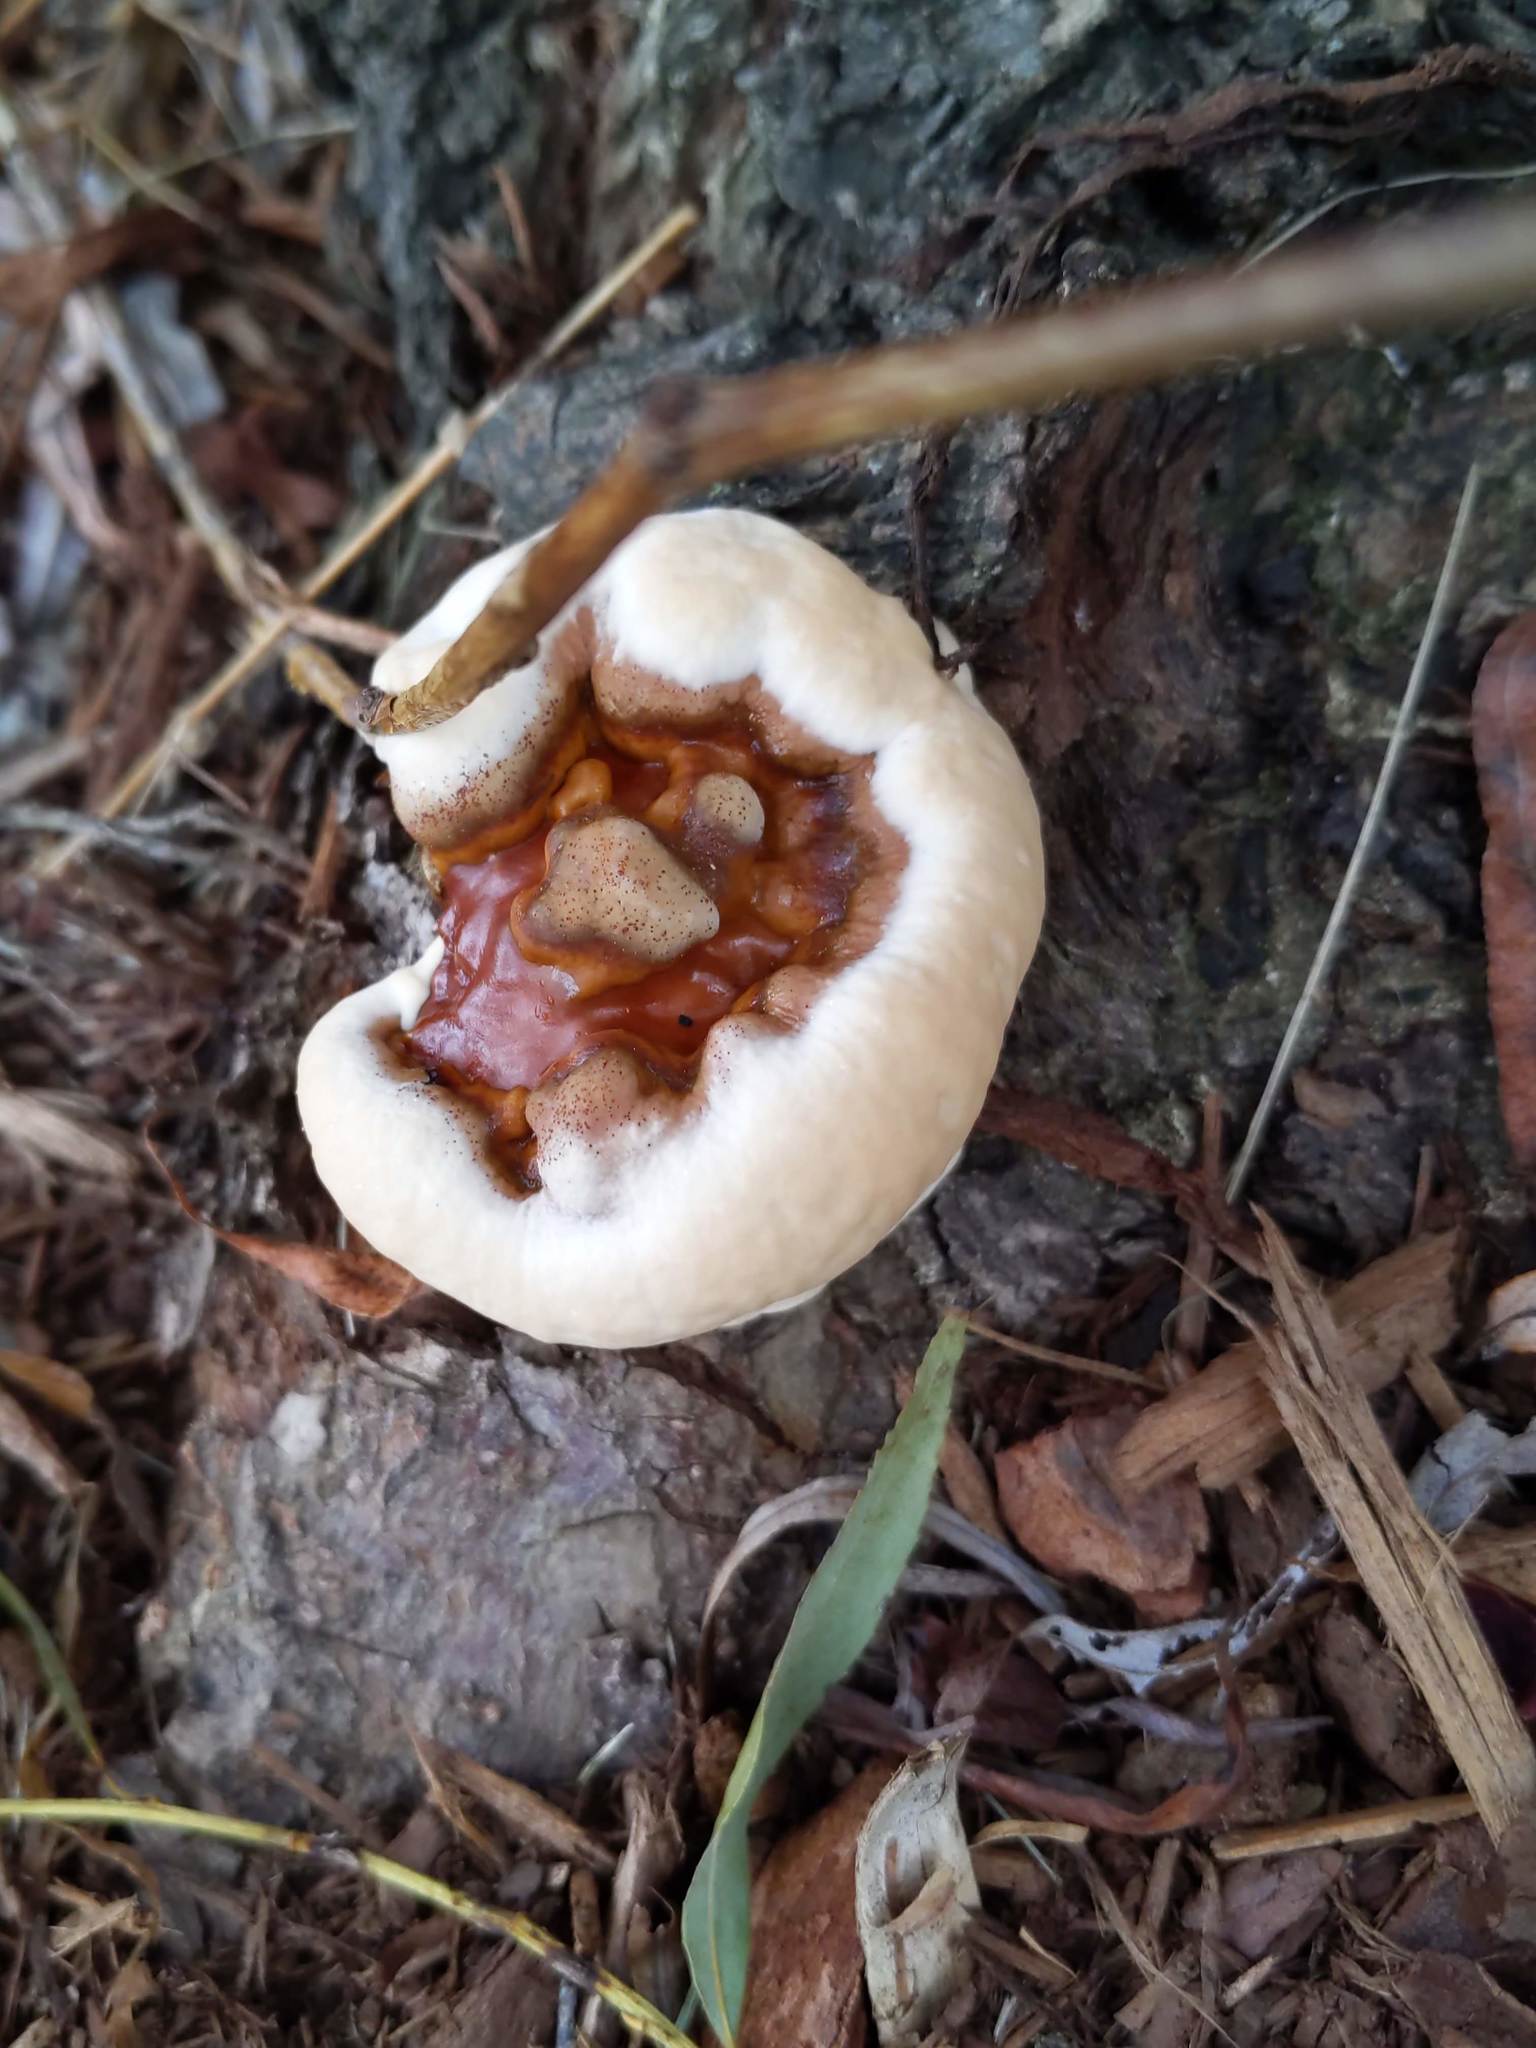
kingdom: Fungi
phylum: Basidiomycota
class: Agaricomycetes
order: Polyporales
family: Polyporaceae
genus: Ganoderma
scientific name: Ganoderma
